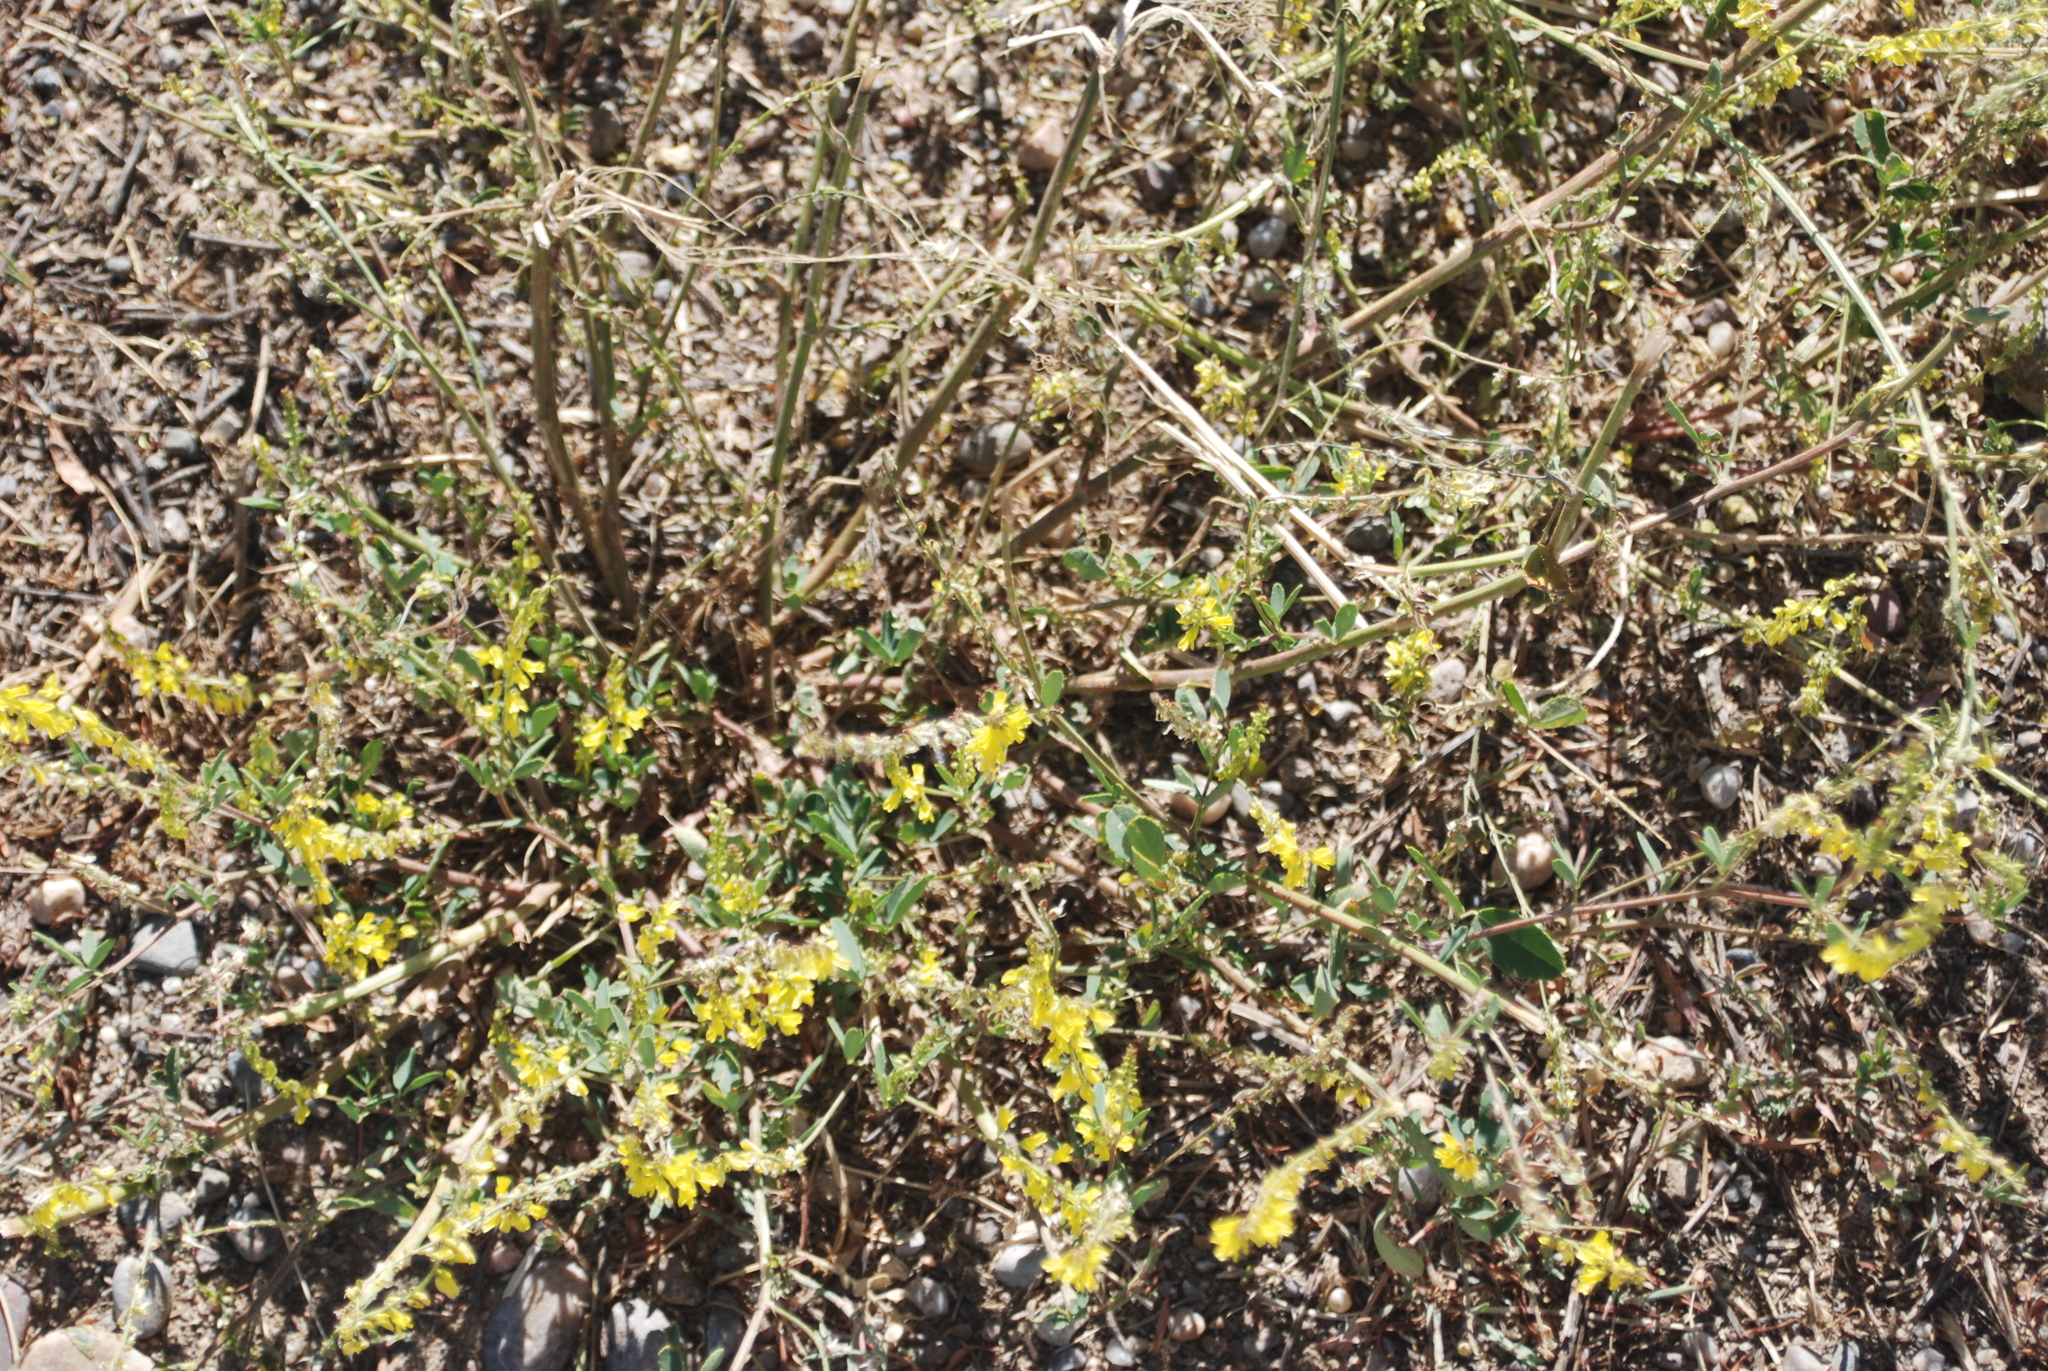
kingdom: Plantae
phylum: Tracheophyta
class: Magnoliopsida
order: Fabales
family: Fabaceae
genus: Melilotus
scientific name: Melilotus officinalis
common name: Sweetclover
